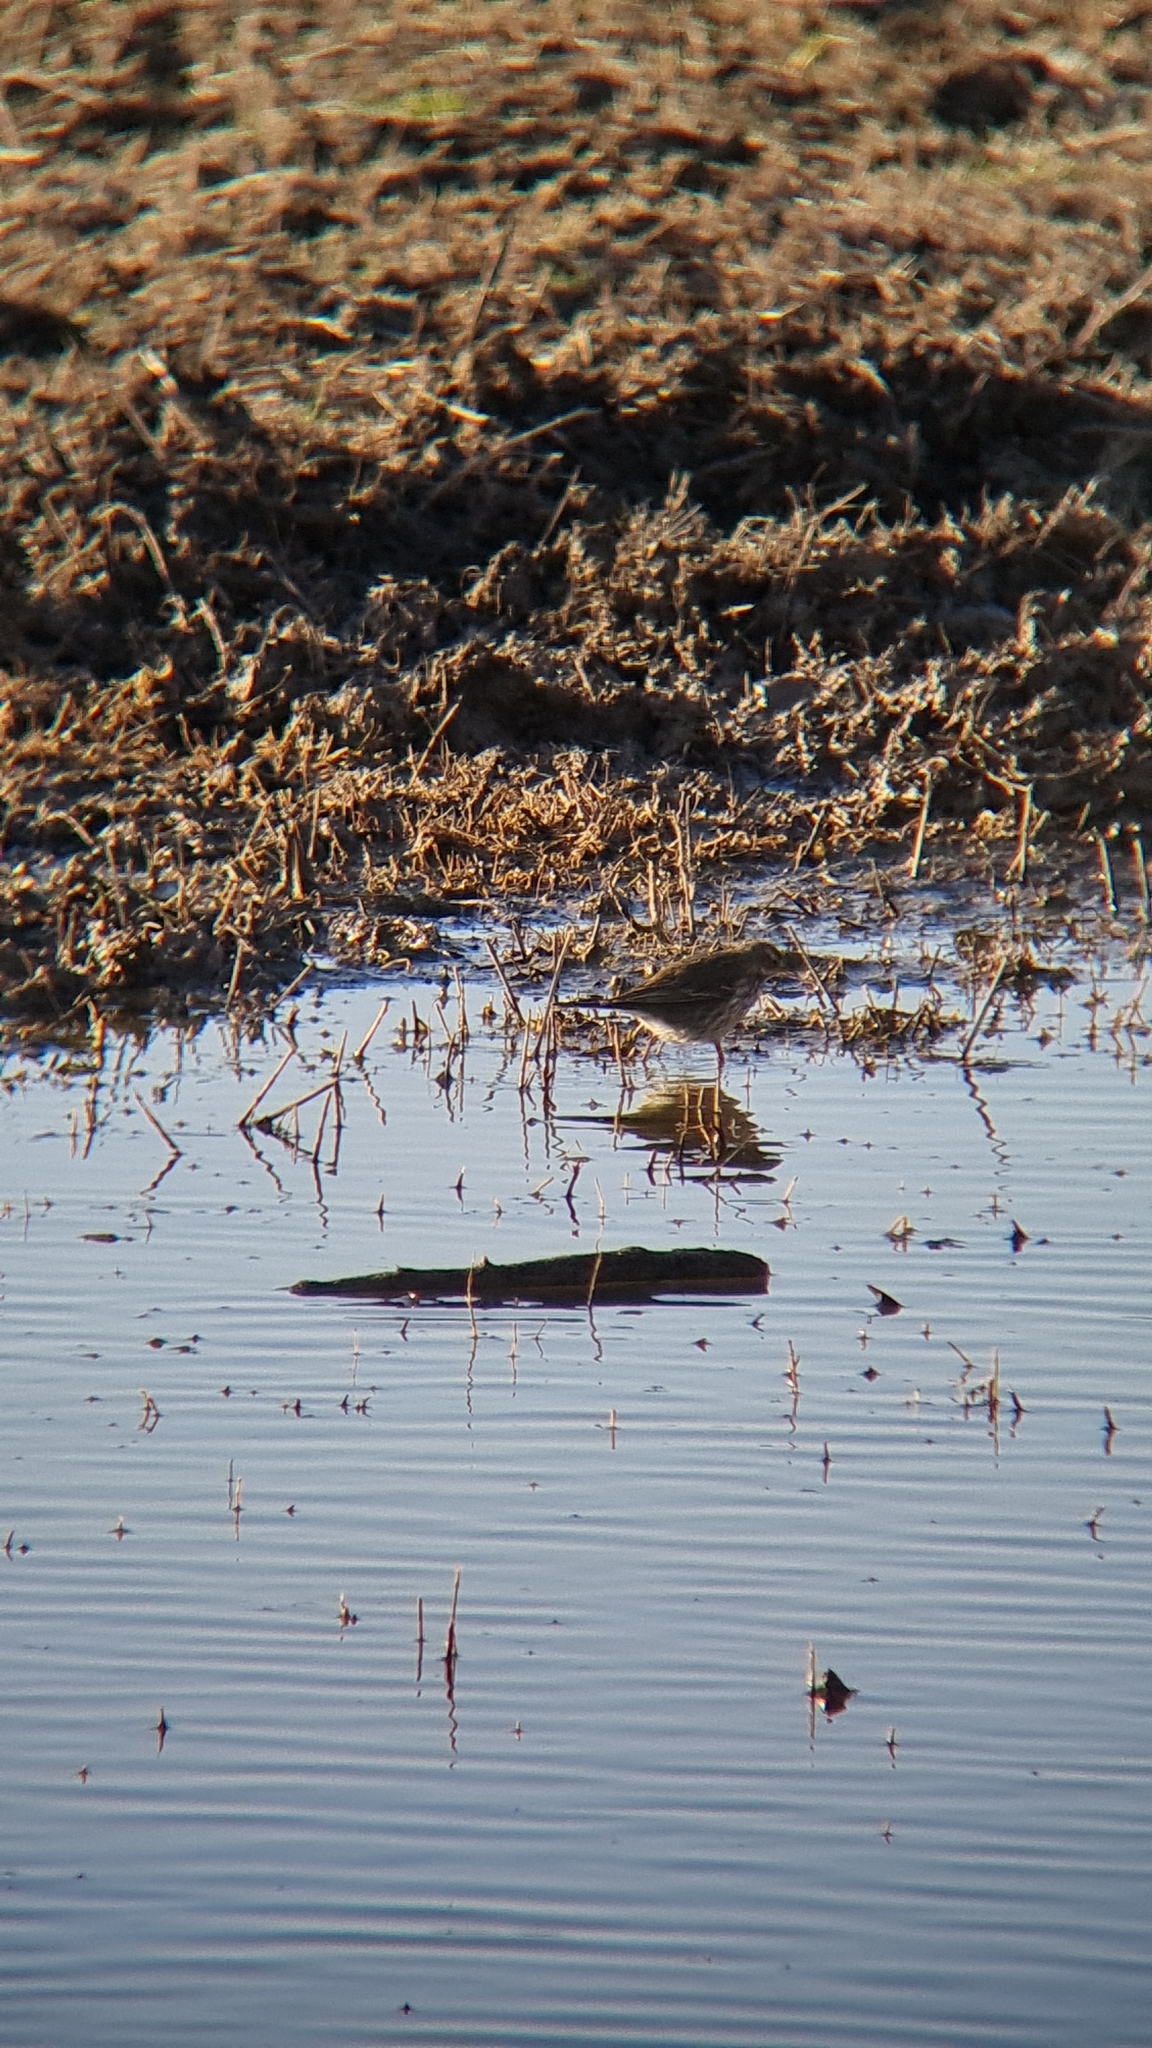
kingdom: Animalia
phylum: Chordata
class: Aves
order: Passeriformes
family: Motacillidae
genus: Anthus
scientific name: Anthus spinoletta
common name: Water pipit
